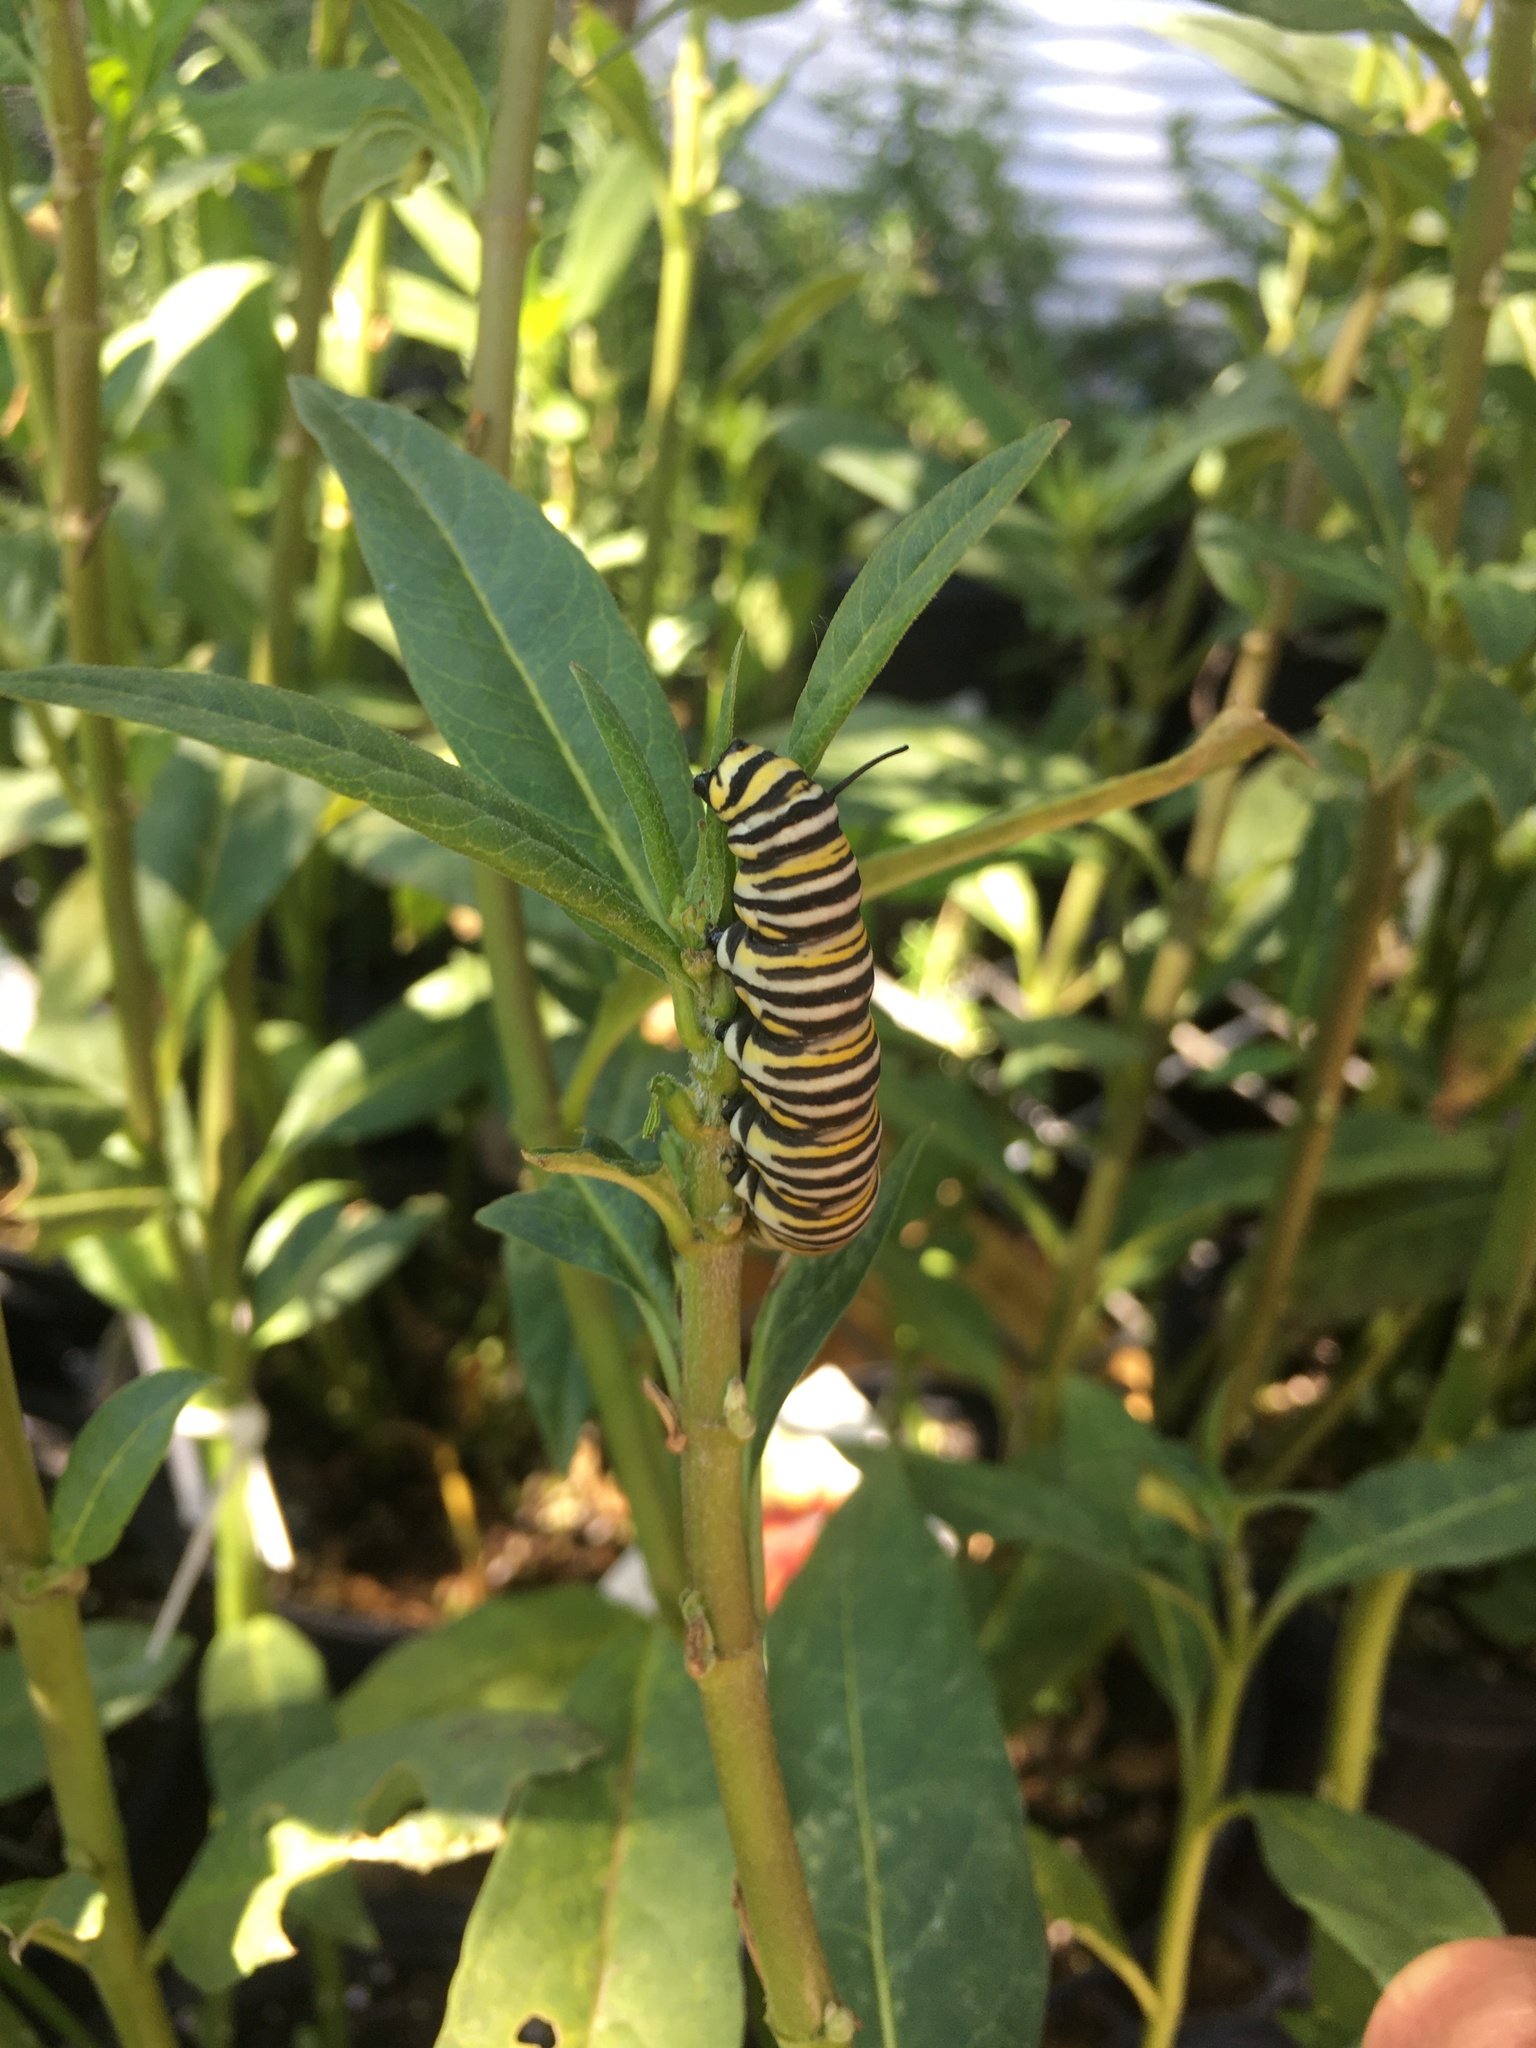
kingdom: Animalia
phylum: Arthropoda
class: Insecta
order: Lepidoptera
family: Nymphalidae
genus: Danaus
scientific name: Danaus plexippus
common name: Monarch
